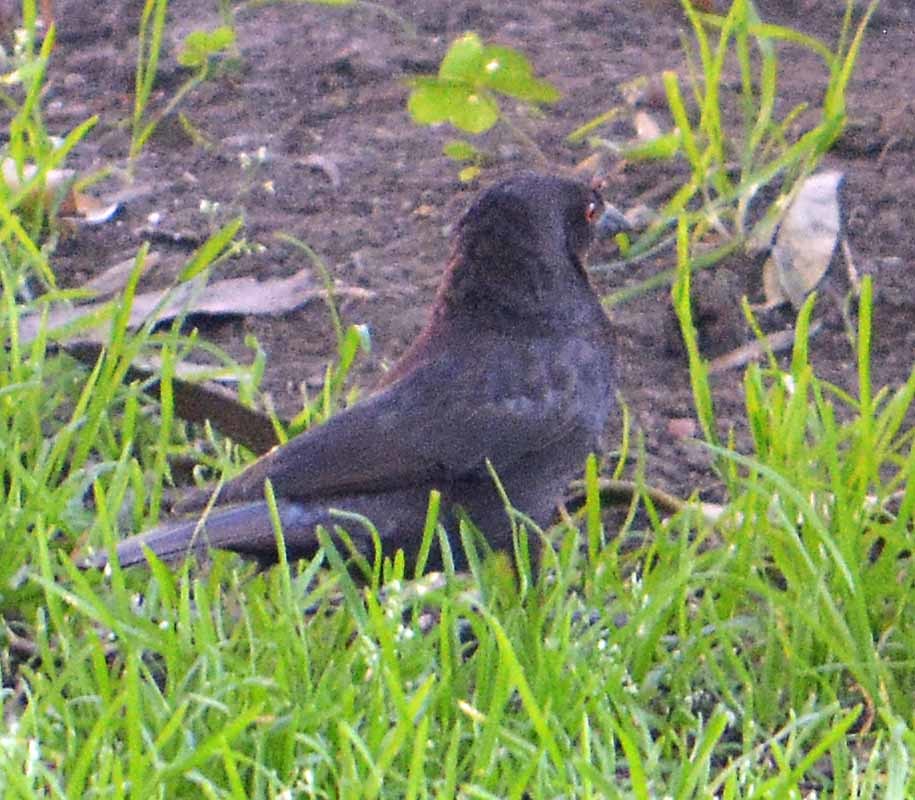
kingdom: Animalia
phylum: Chordata
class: Aves
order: Passeriformes
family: Icteridae
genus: Molothrus
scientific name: Molothrus aeneus
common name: Bronzed cowbird
